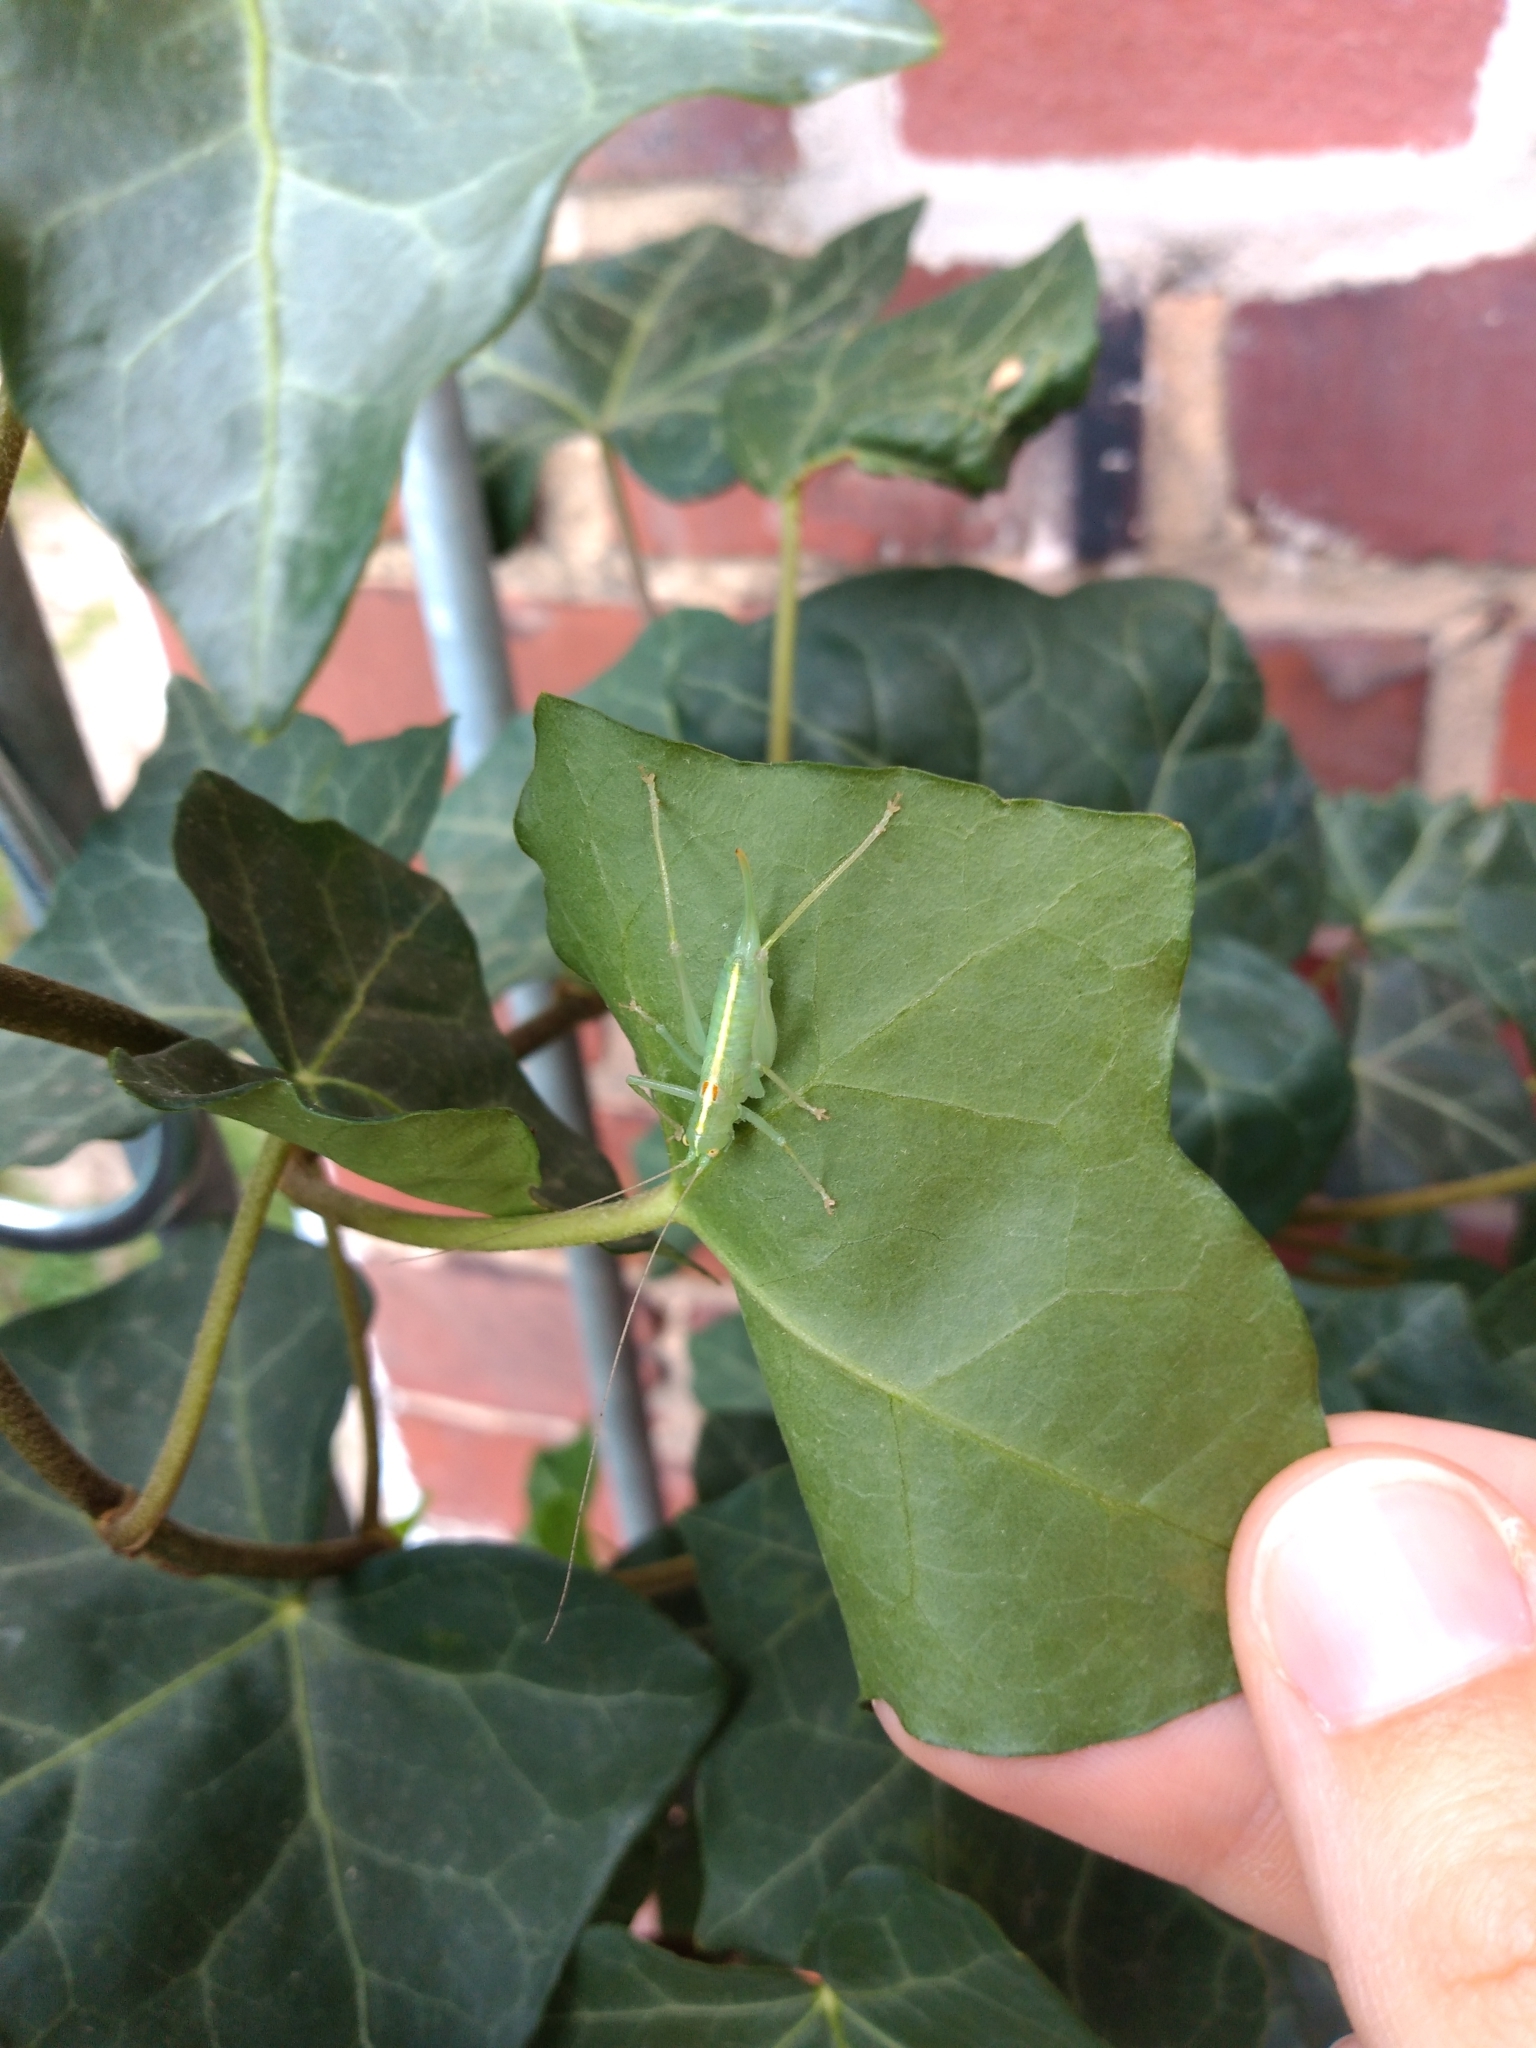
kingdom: Animalia
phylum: Arthropoda
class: Insecta
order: Orthoptera
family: Tettigoniidae
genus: Meconema
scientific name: Meconema meridionale
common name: Southern oak bush-cricket
